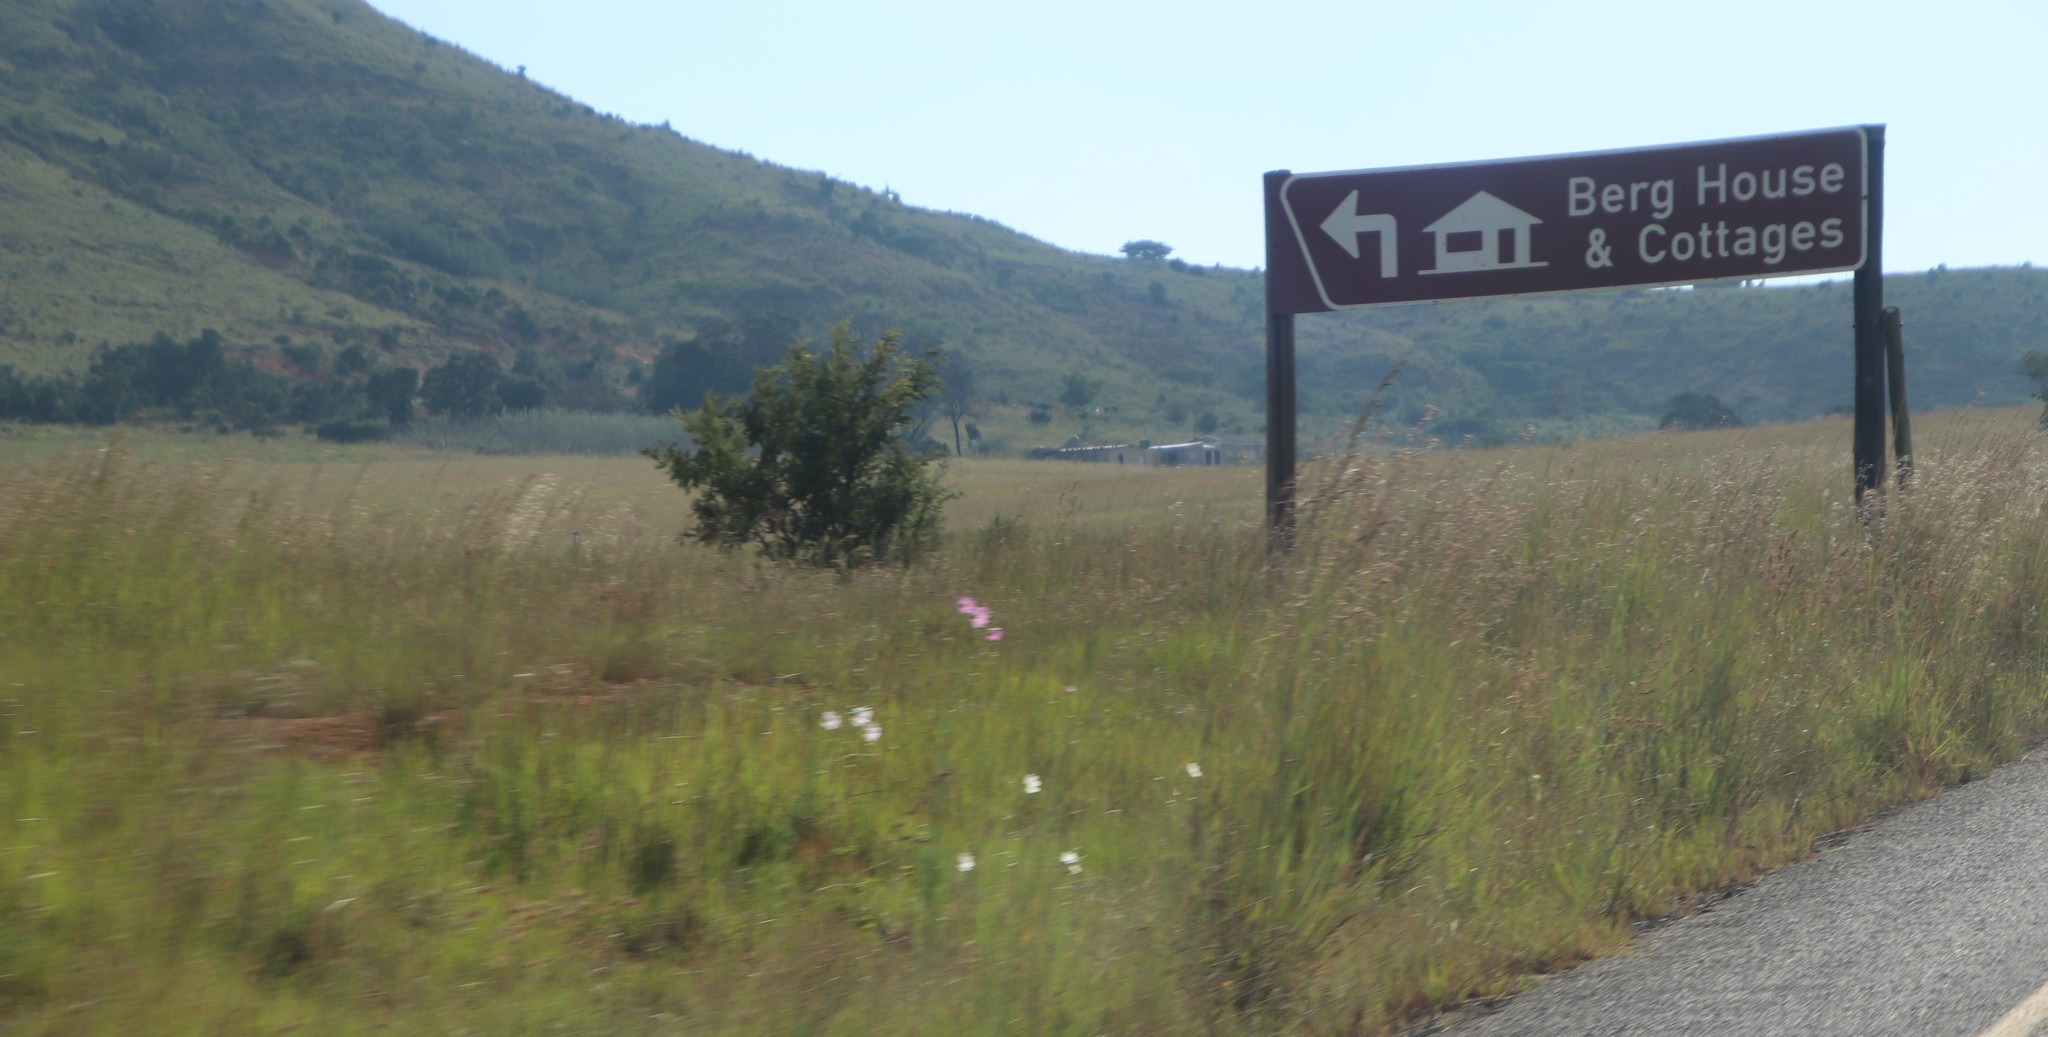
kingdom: Plantae
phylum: Tracheophyta
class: Magnoliopsida
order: Asterales
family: Asteraceae
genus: Cosmos
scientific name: Cosmos bipinnatus
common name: Garden cosmos
